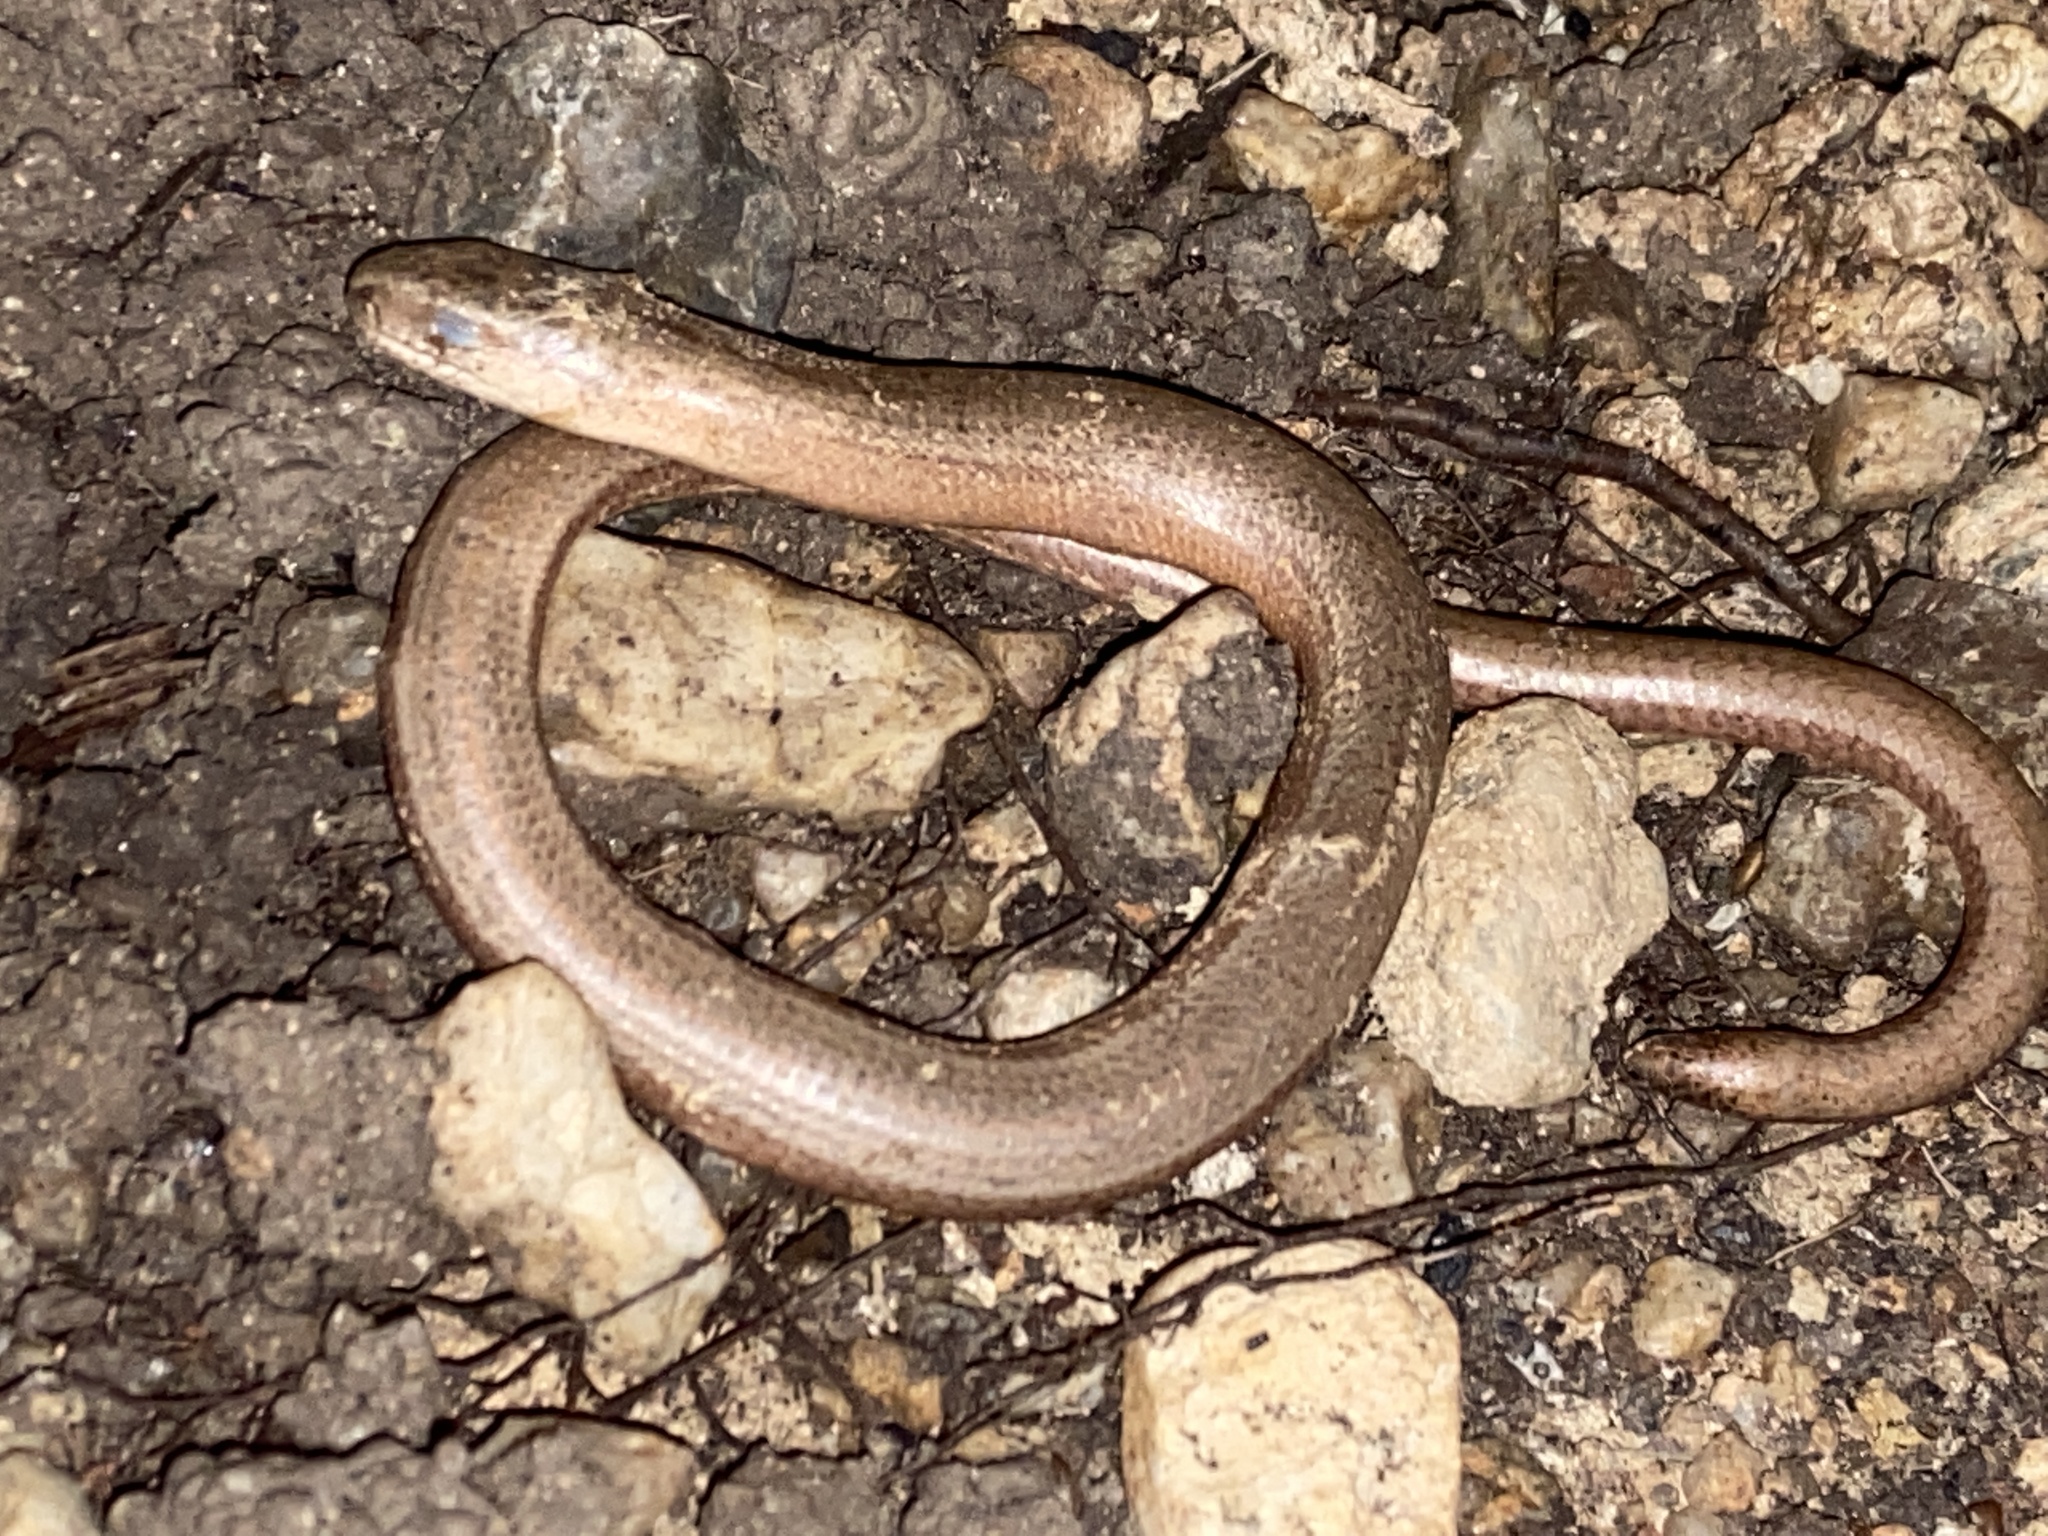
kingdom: Animalia
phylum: Chordata
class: Squamata
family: Anguidae
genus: Anguis
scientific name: Anguis fragilis
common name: Slow worm
